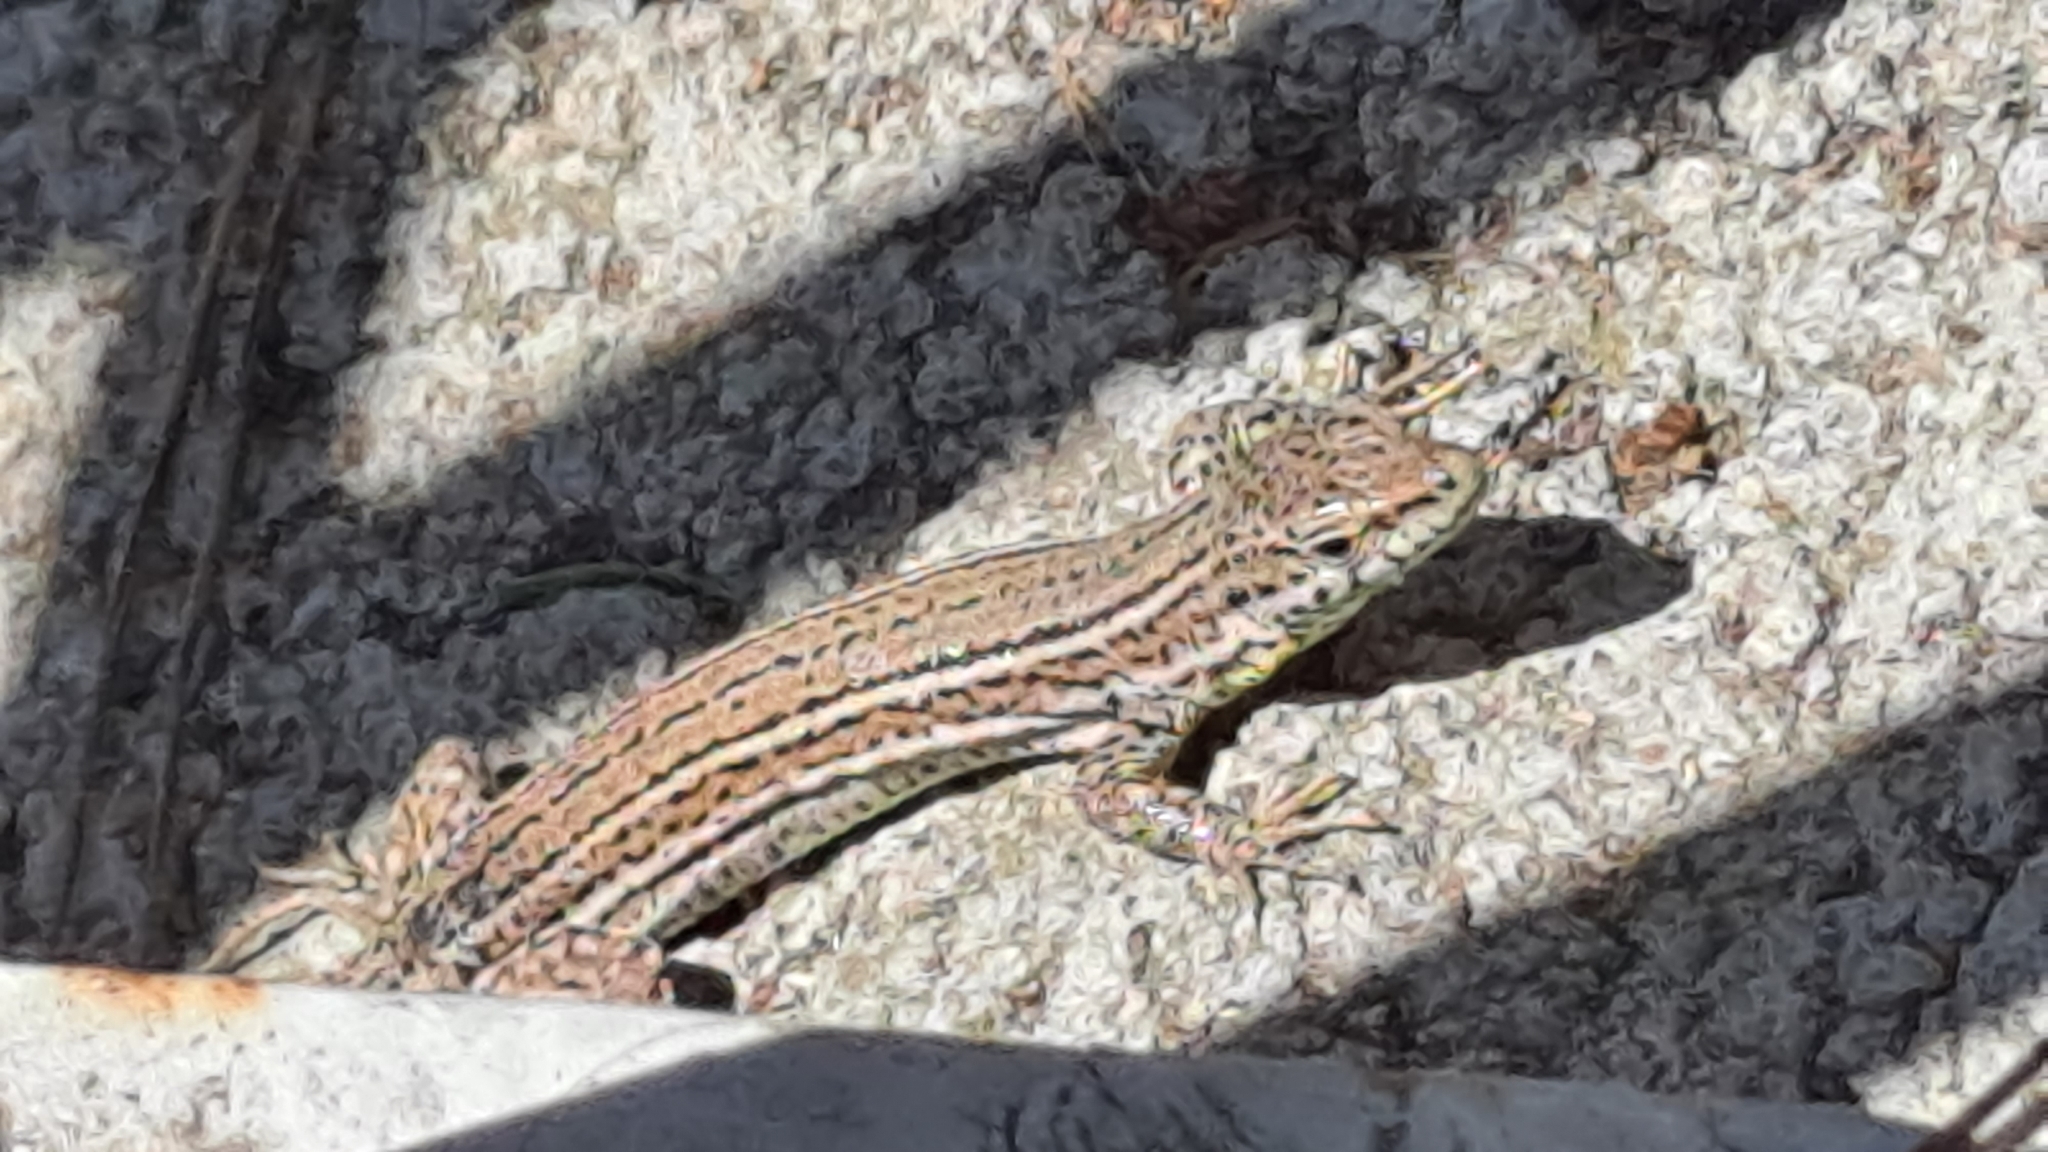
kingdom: Animalia
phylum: Chordata
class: Squamata
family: Lacertidae
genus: Podarcis
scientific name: Podarcis liolepis
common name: Catalonian wall lizard
